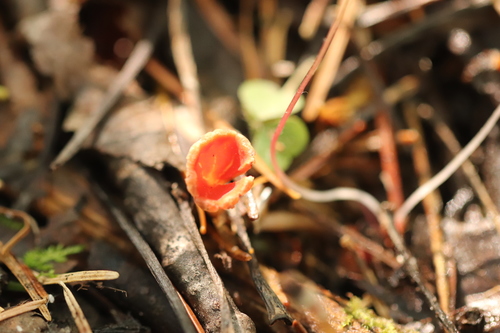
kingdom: Fungi
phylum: Ascomycota
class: Pezizomycetes
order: Pezizales
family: Sarcoscyphaceae
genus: Microstoma
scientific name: Microstoma protractum
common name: Rosy goblet
